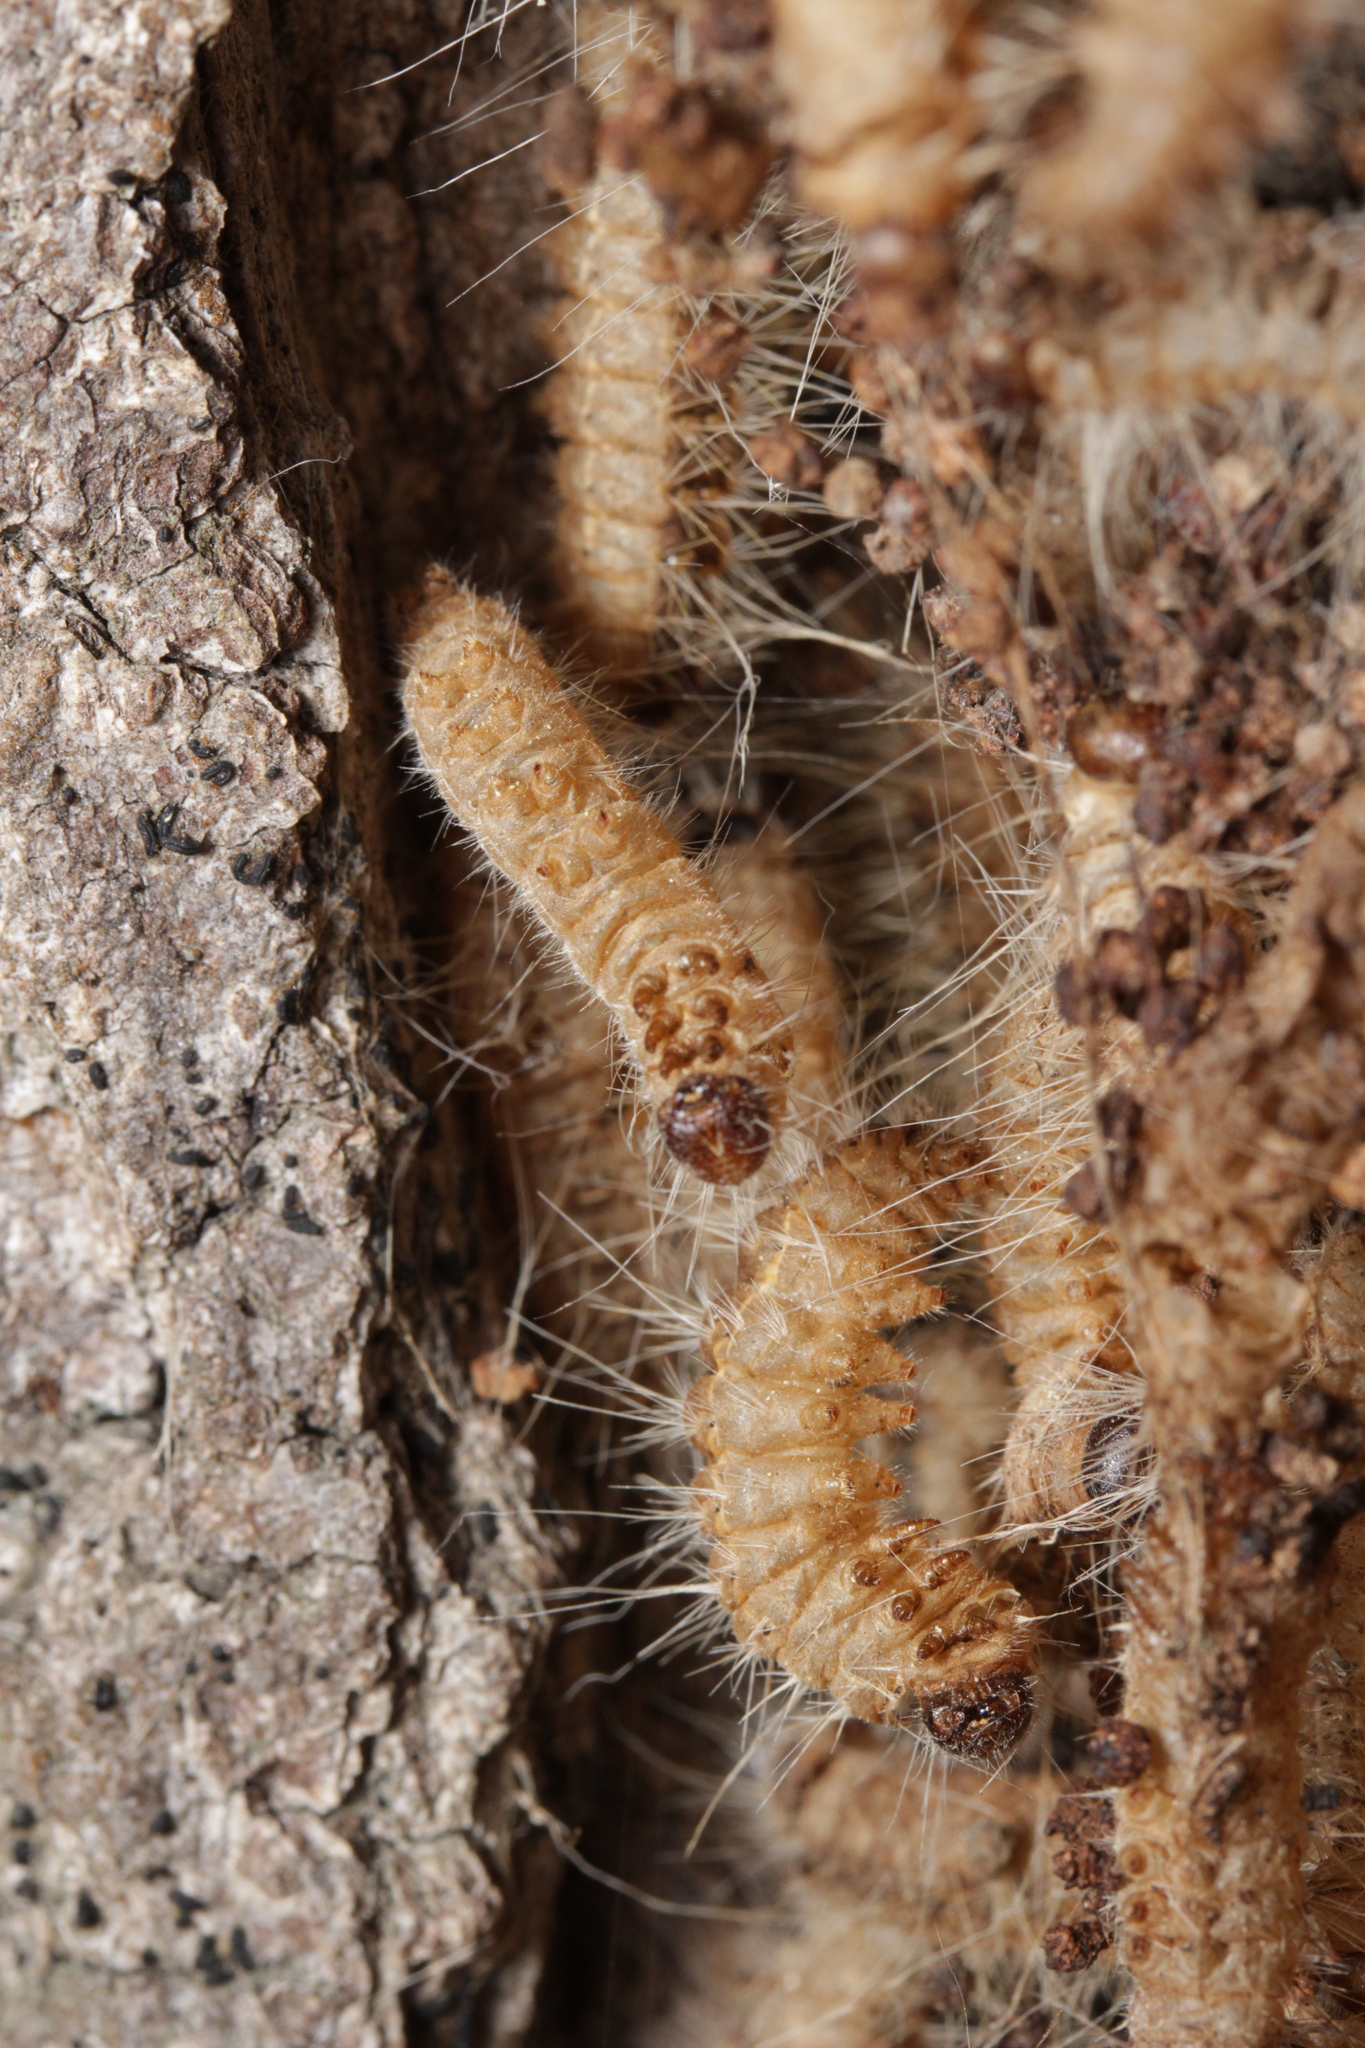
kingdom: Animalia
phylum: Arthropoda
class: Insecta
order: Lepidoptera
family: Notodontidae
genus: Thaumetopoea
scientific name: Thaumetopoea processionea
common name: Oak processionea
